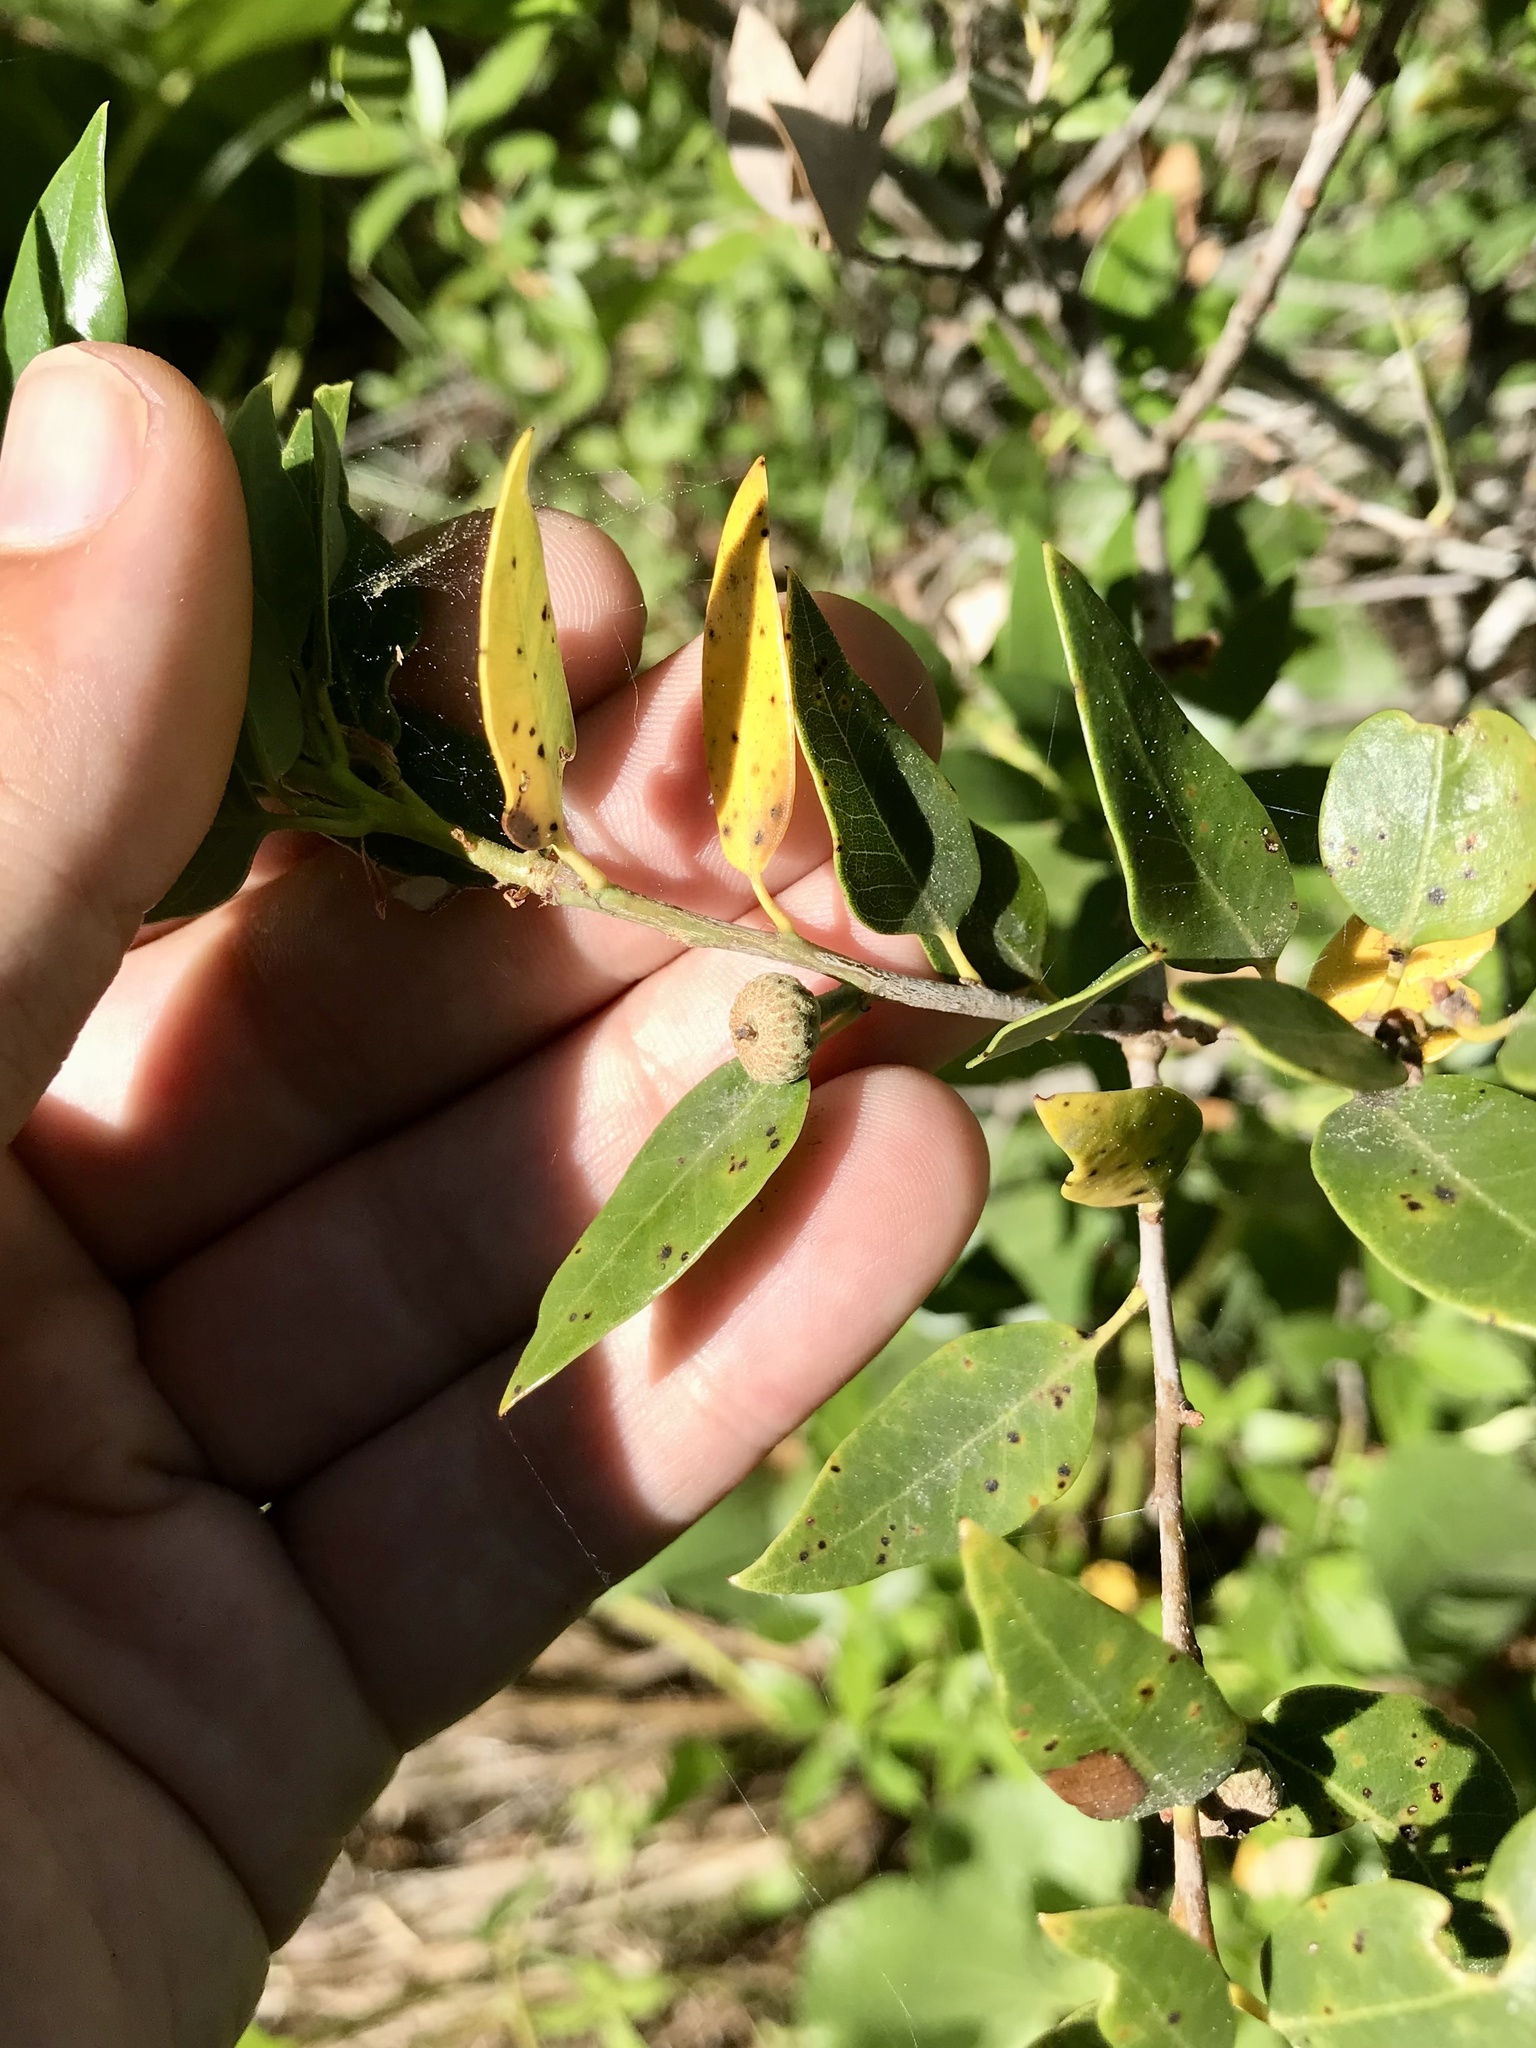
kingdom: Plantae
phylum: Tracheophyta
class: Magnoliopsida
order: Fagales
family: Fagaceae
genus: Quercus
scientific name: Quercus vacciniifolia
